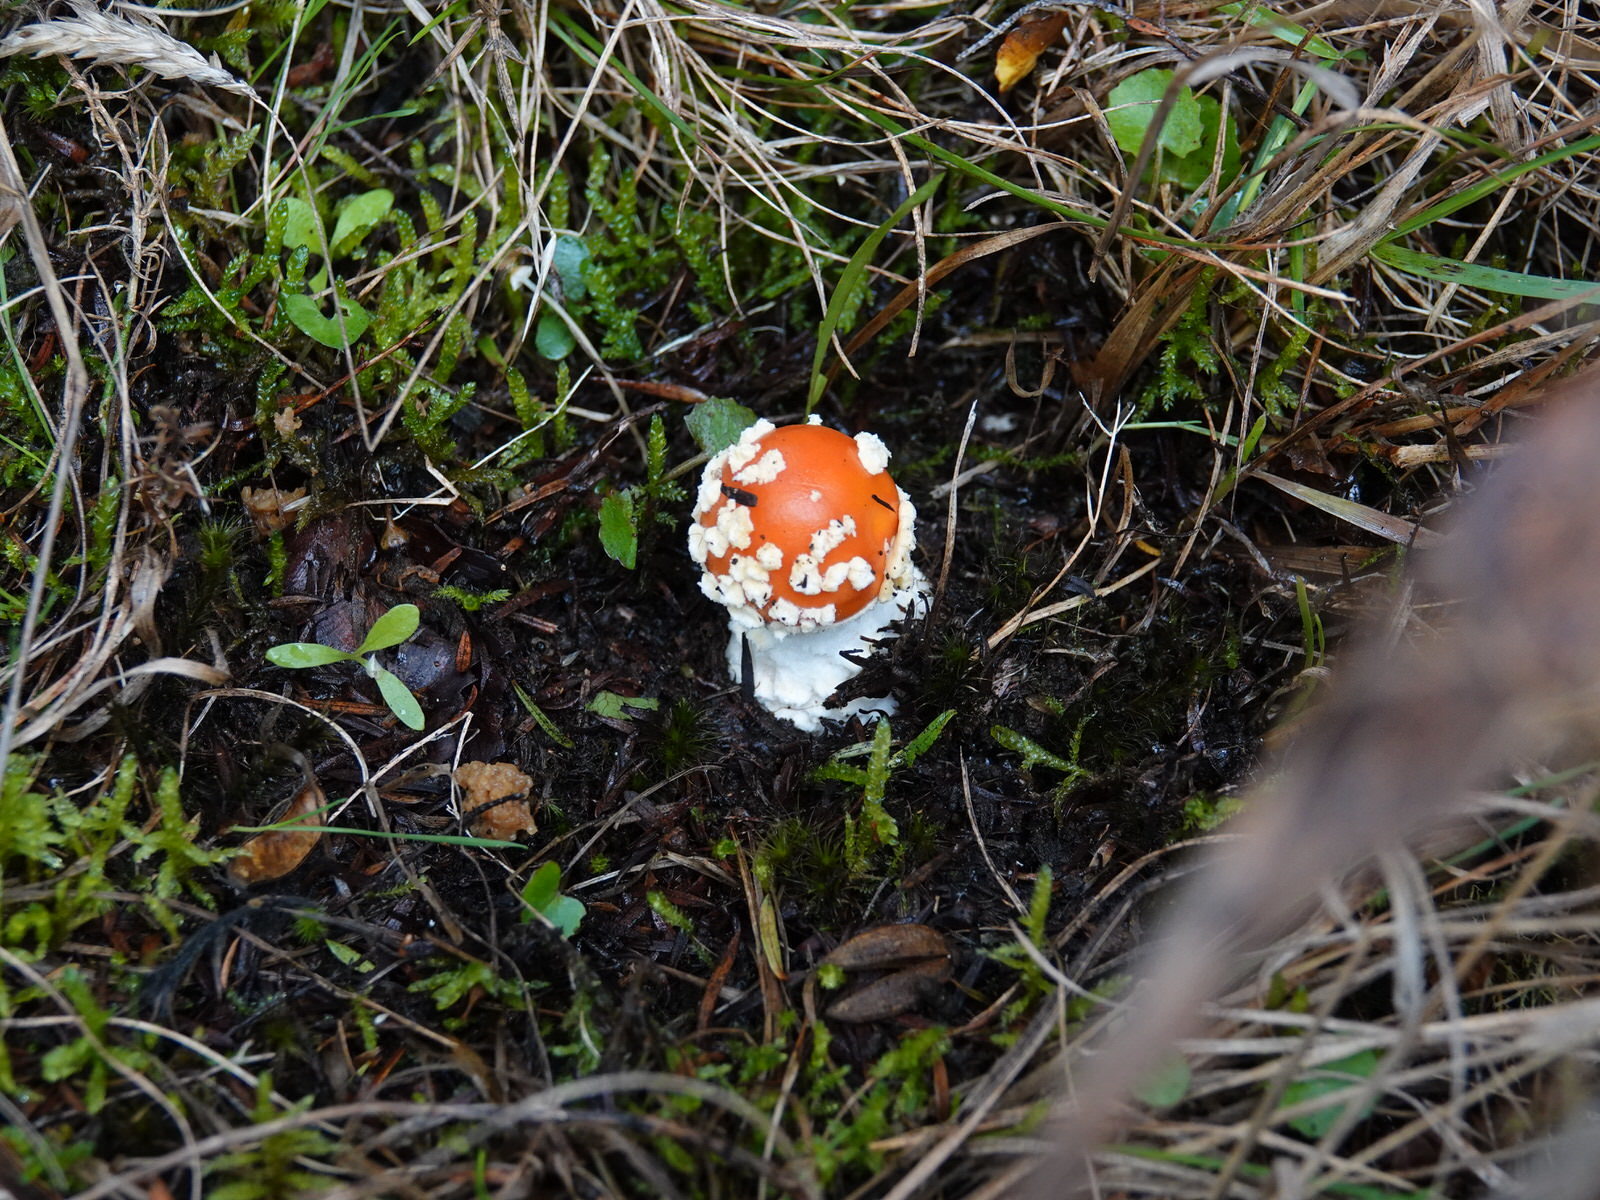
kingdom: Fungi
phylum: Basidiomycota
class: Agaricomycetes
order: Agaricales
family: Amanitaceae
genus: Amanita
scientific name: Amanita muscaria
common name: Fly agaric
